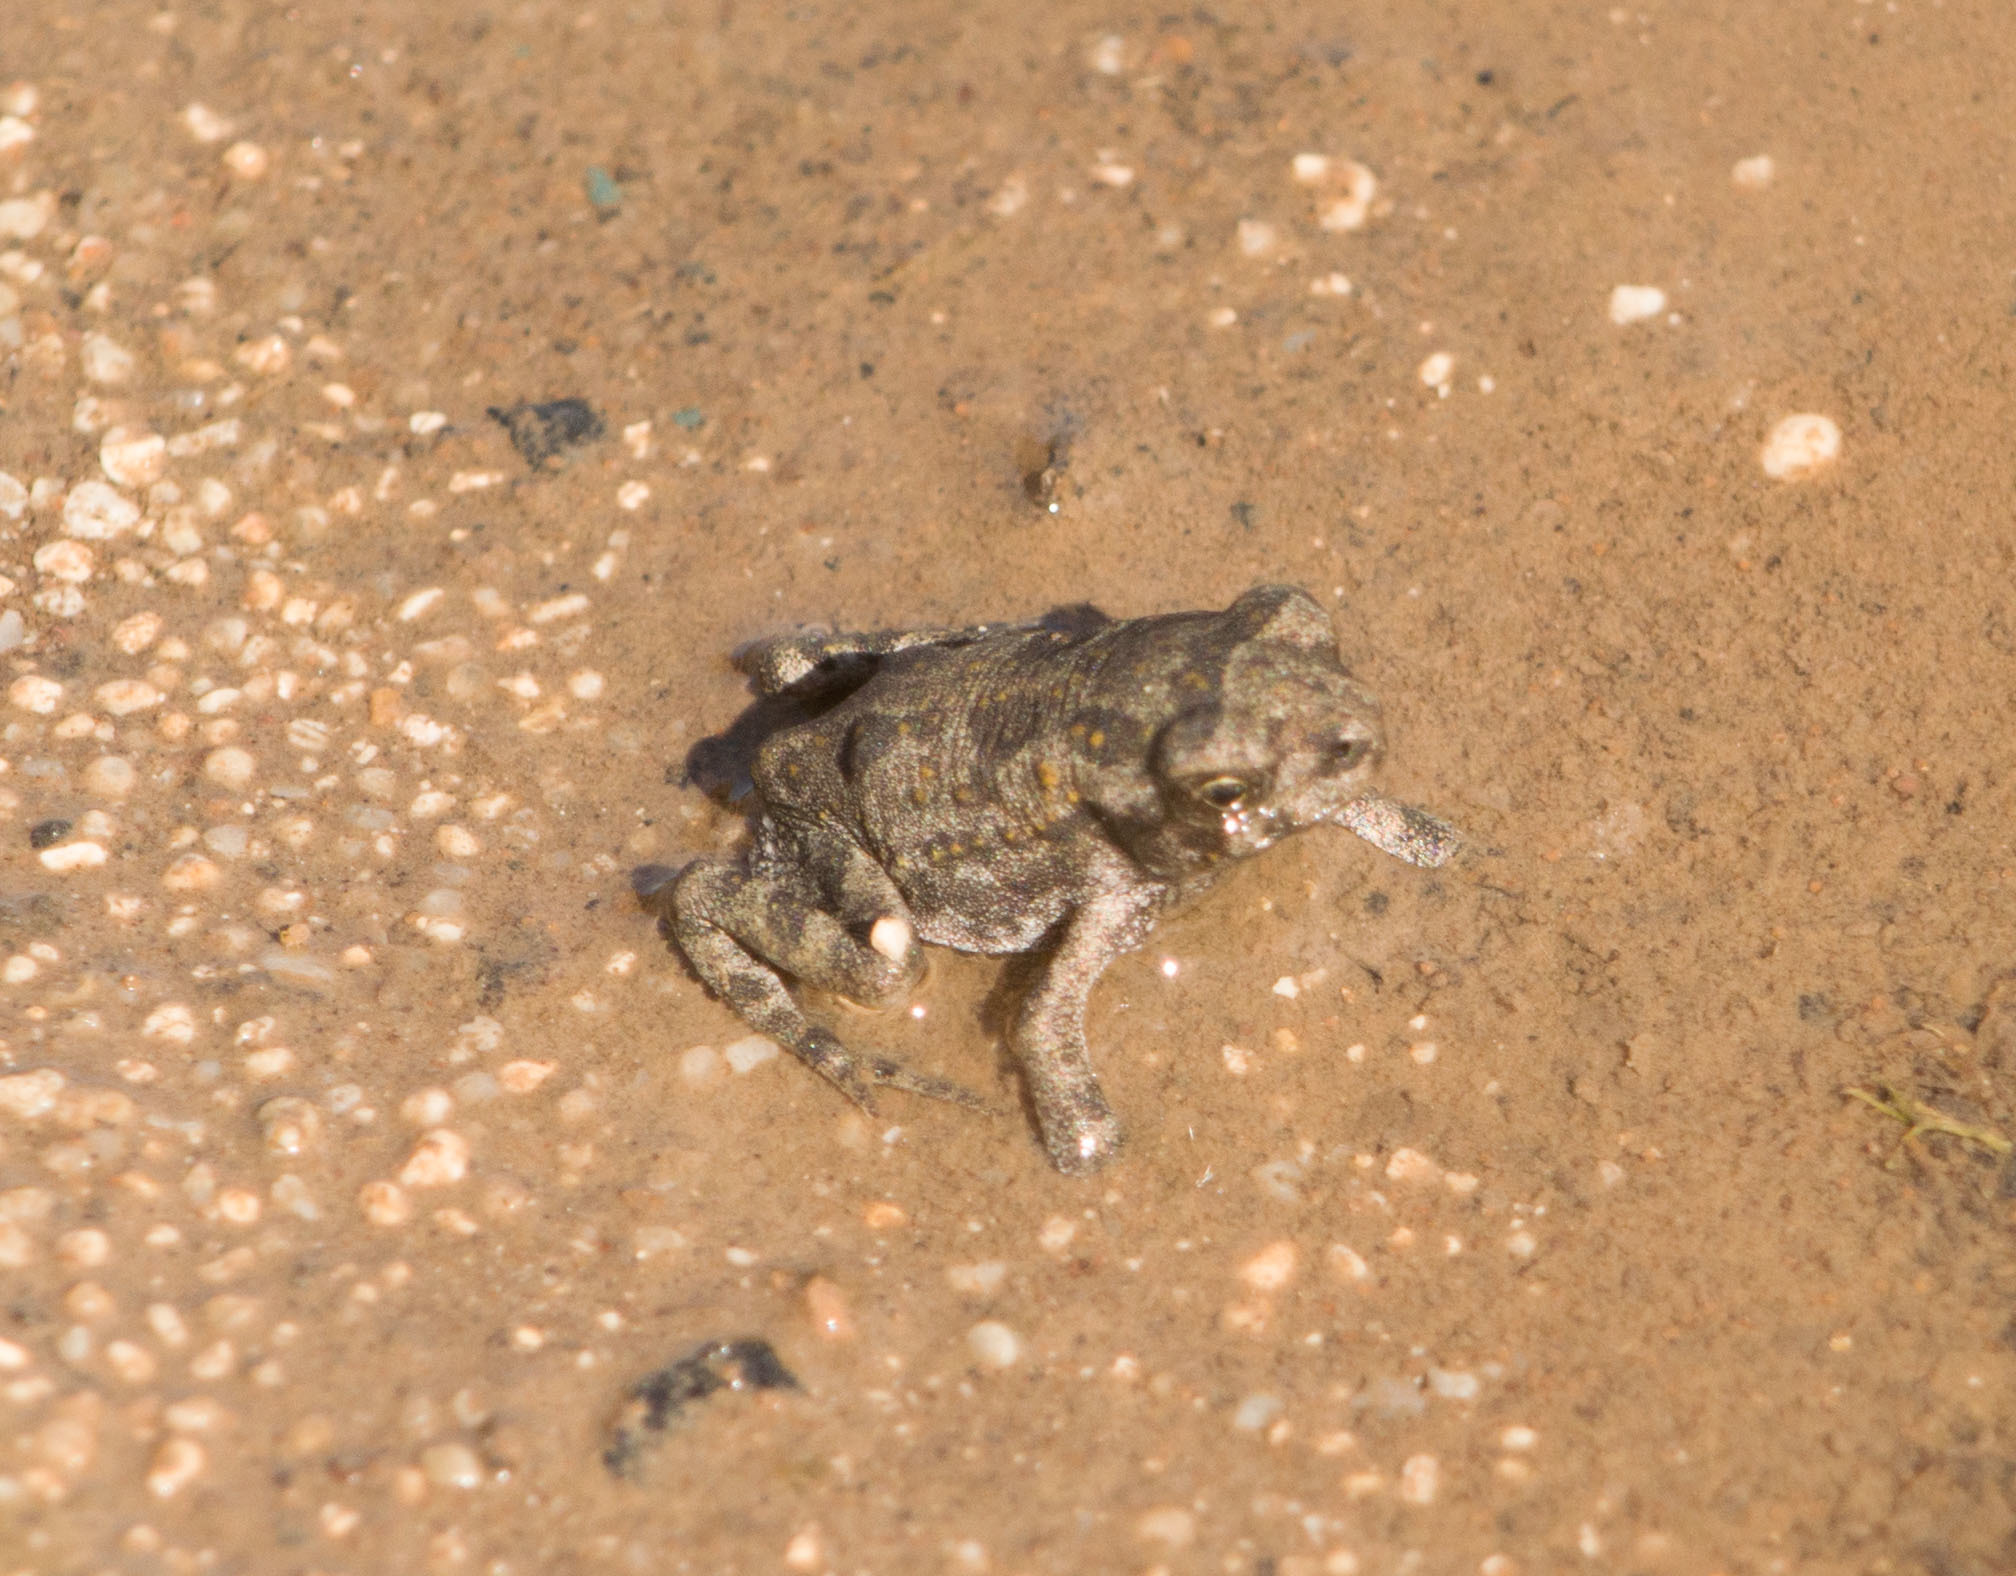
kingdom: Animalia
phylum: Chordata
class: Amphibia
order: Anura
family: Bufonidae
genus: Rhinella
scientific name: Rhinella marina
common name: Cane toad
